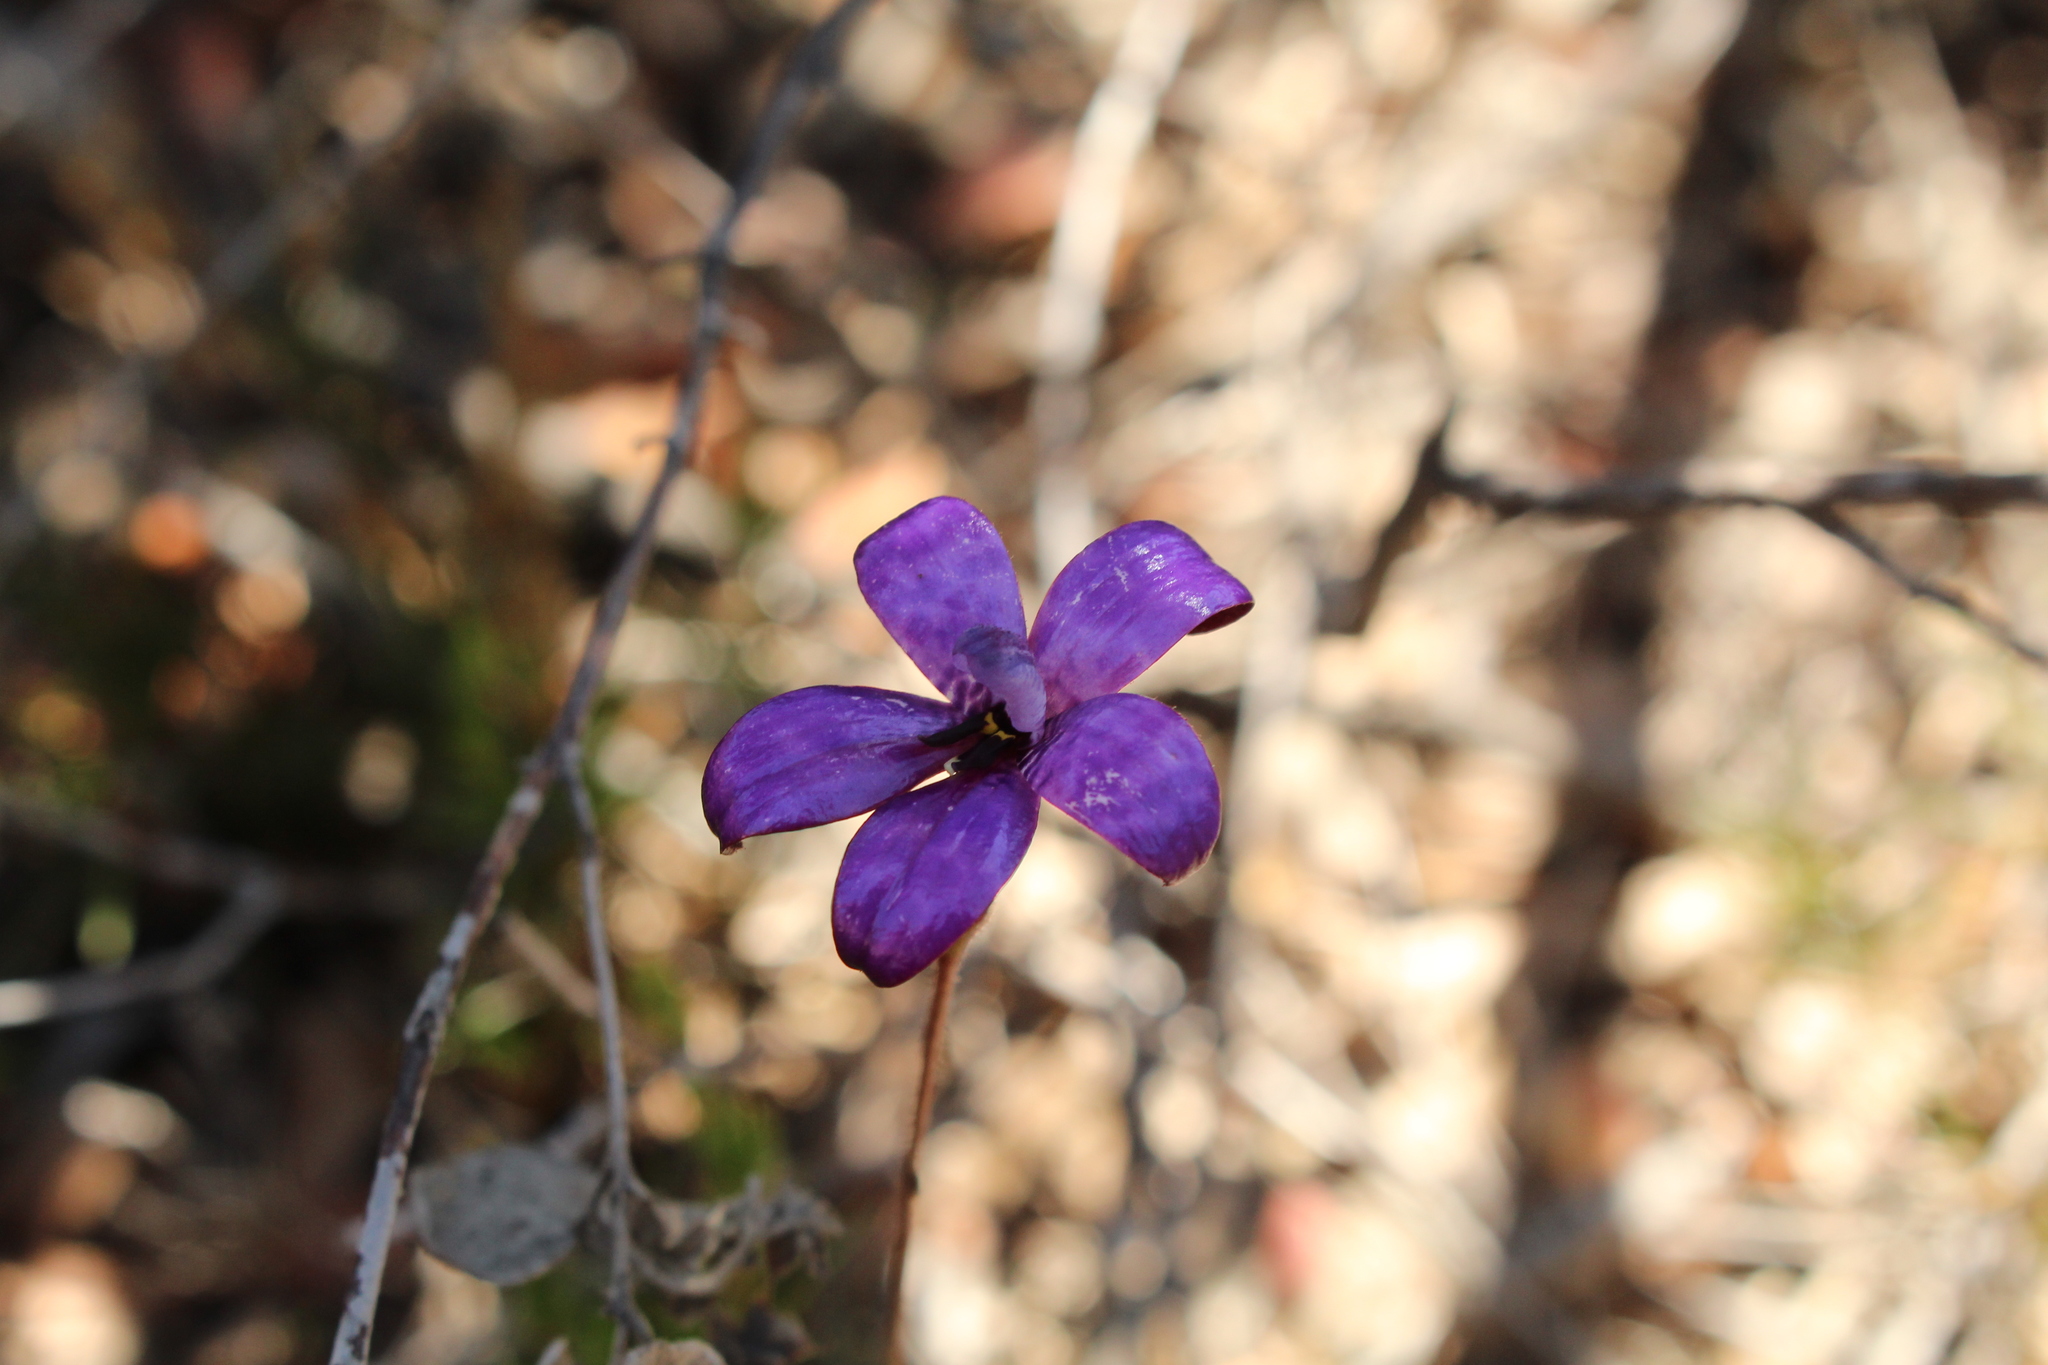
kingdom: Plantae
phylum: Tracheophyta
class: Liliopsida
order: Asparagales
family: Orchidaceae
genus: Caladenia
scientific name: Caladenia brunonis
